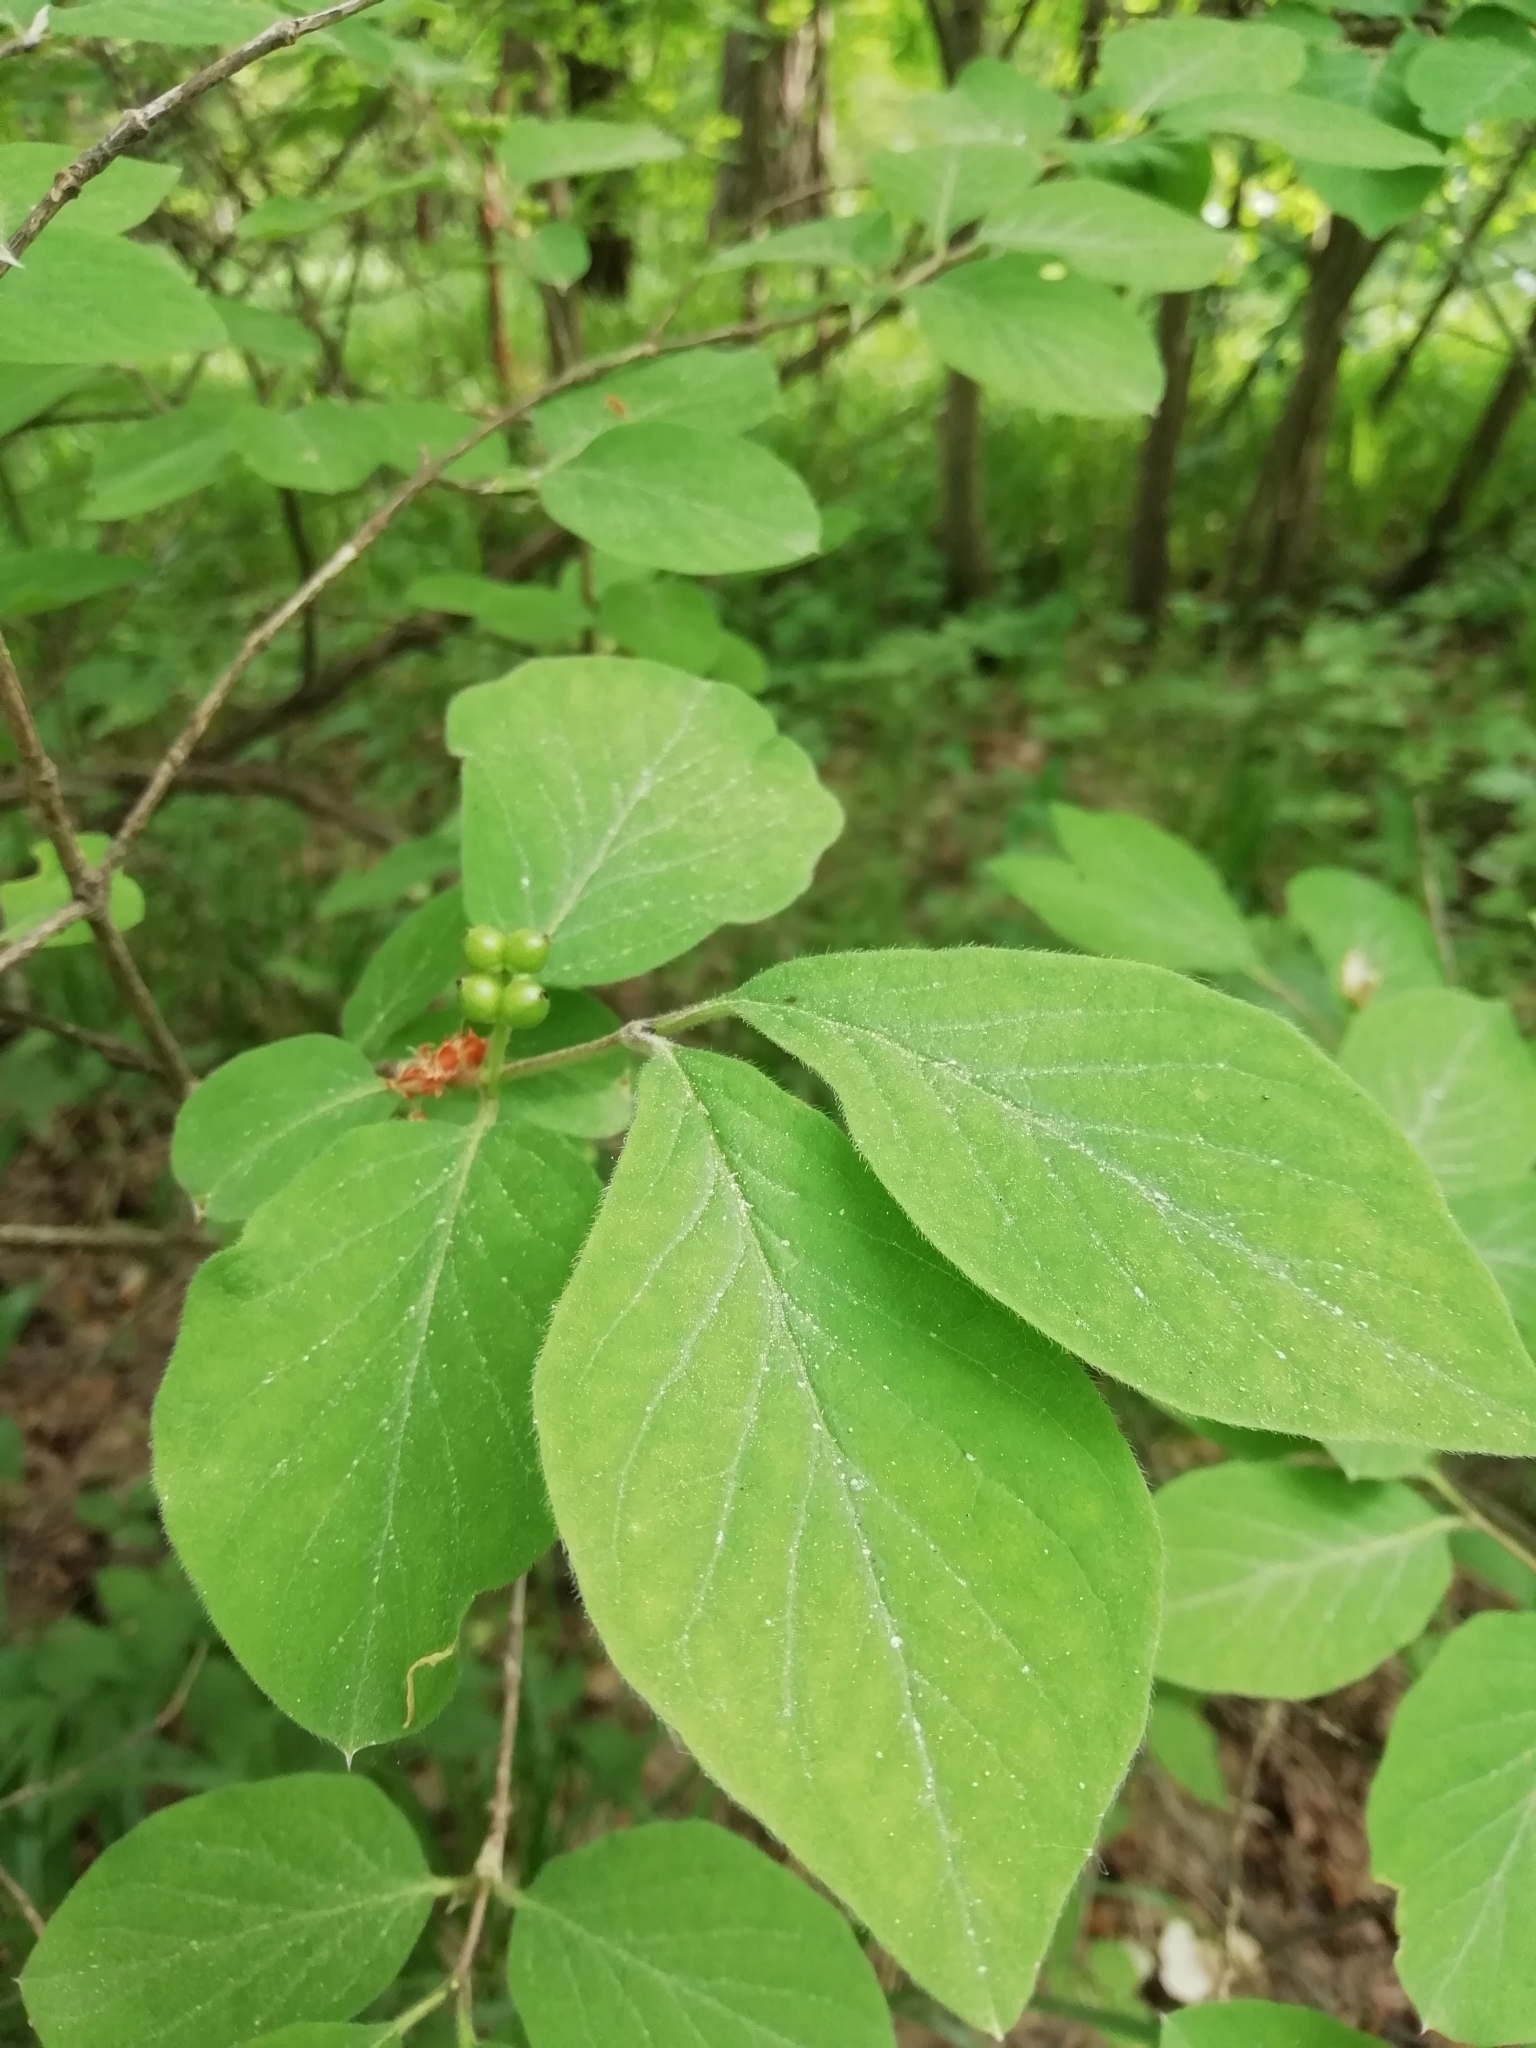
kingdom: Plantae
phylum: Tracheophyta
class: Magnoliopsida
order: Dipsacales
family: Caprifoliaceae
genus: Lonicera
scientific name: Lonicera xylosteum
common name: Fly honeysuckle
